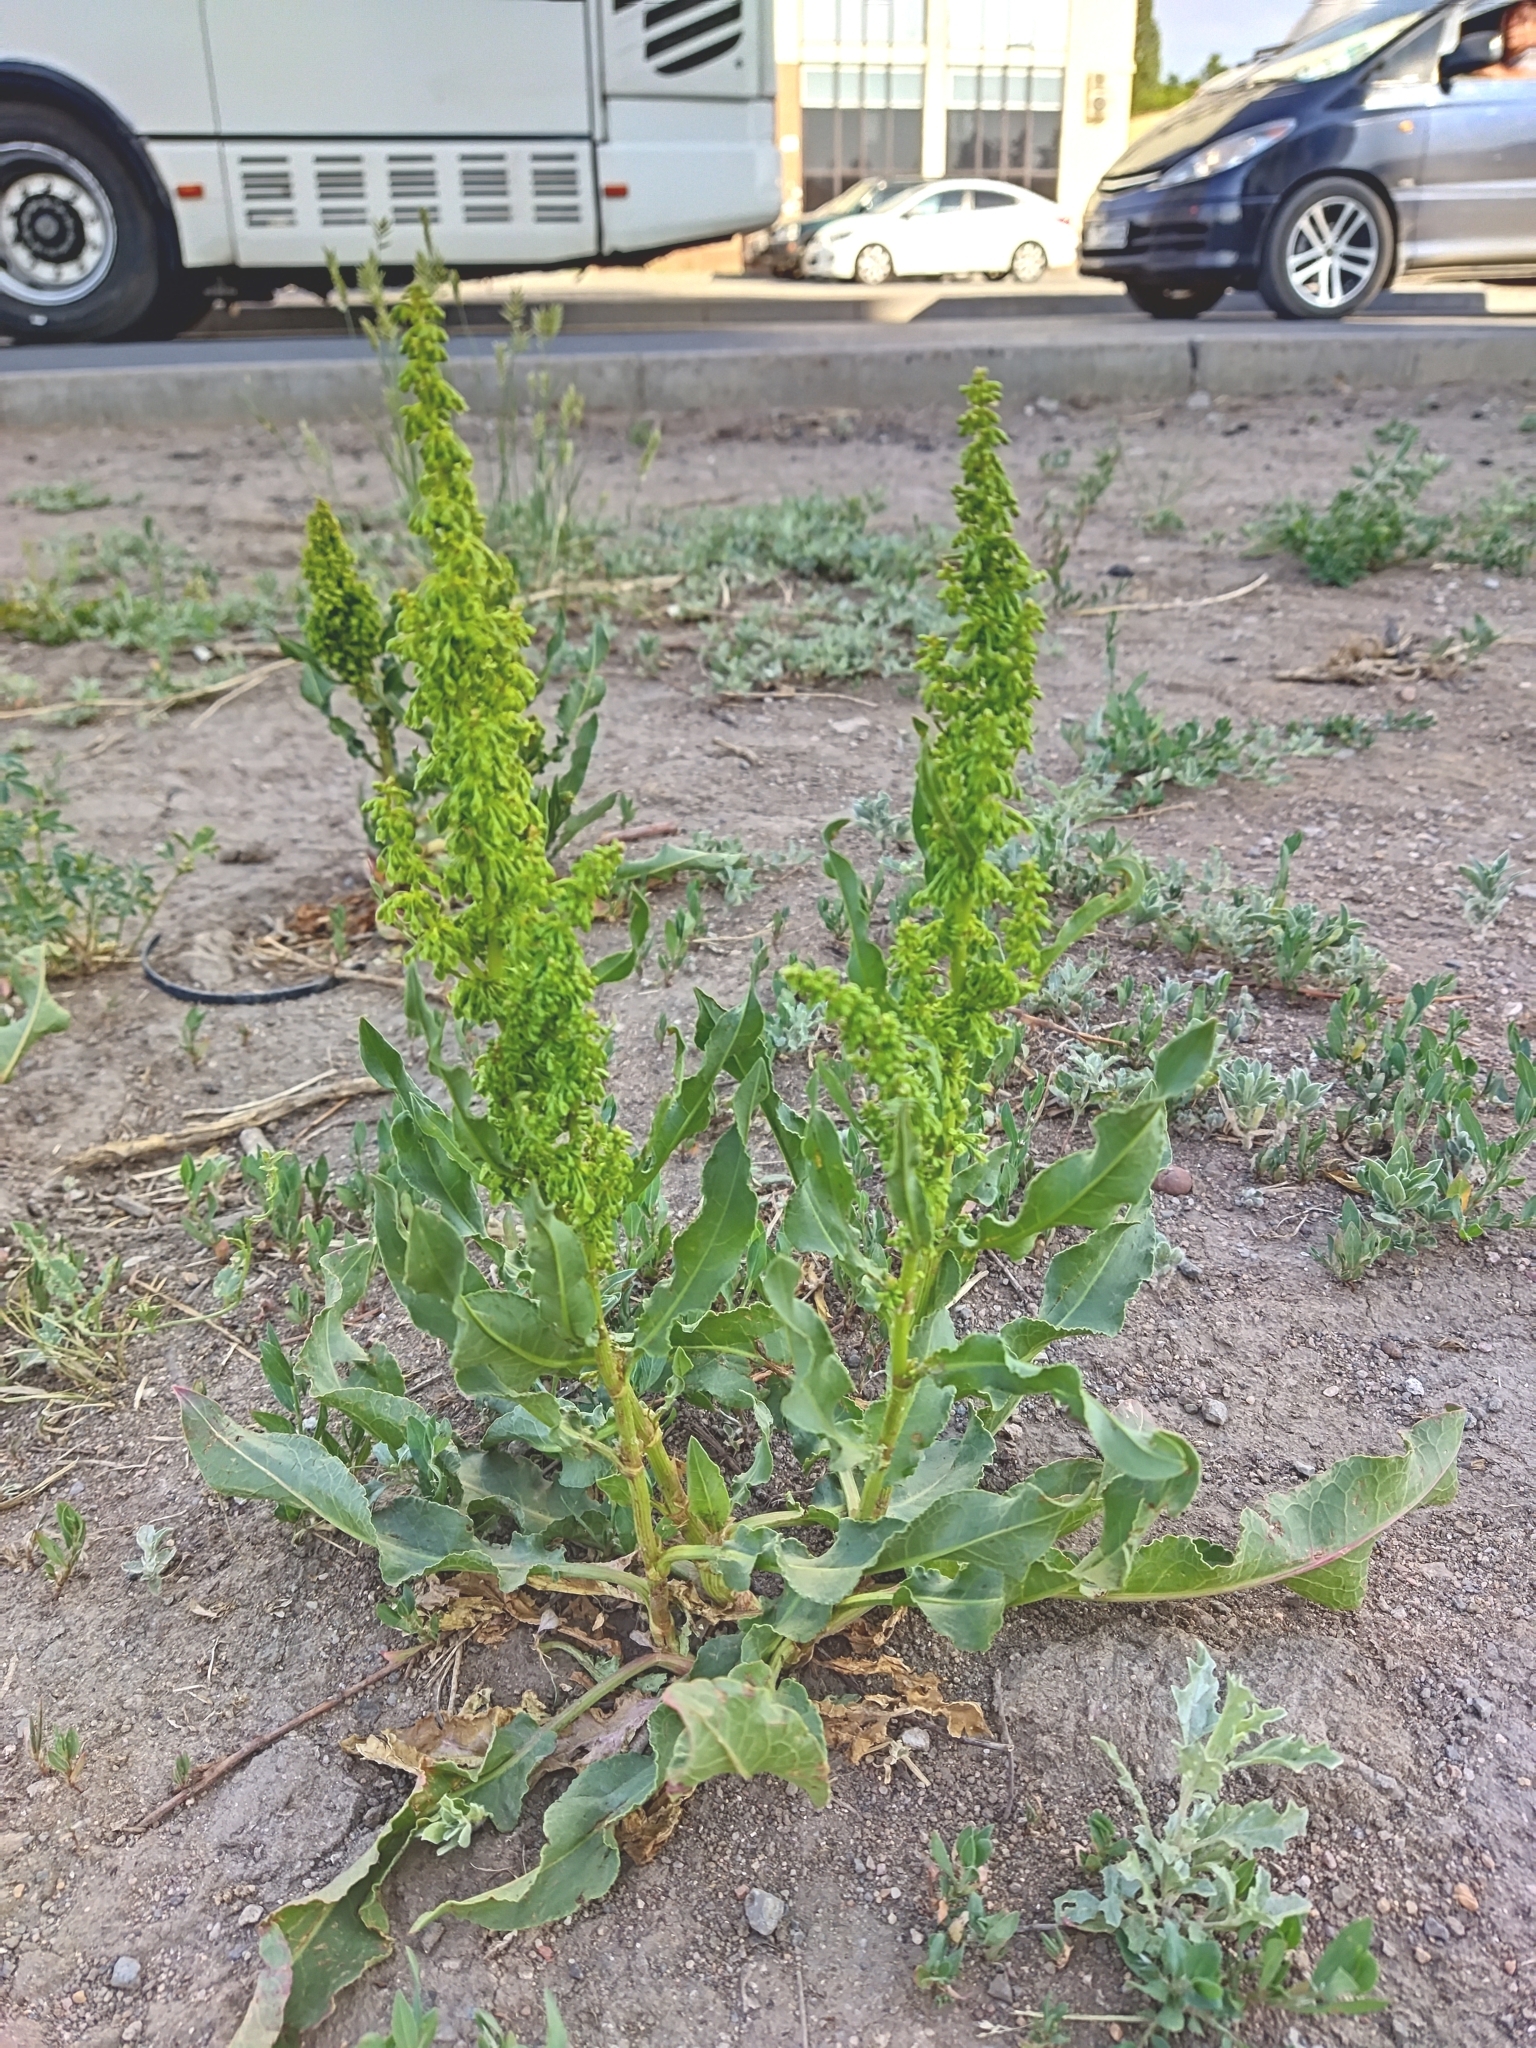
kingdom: Plantae
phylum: Tracheophyta
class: Magnoliopsida
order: Caryophyllales
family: Polygonaceae
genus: Rumex
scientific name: Rumex stenophyllus
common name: Narrowleaf dock
